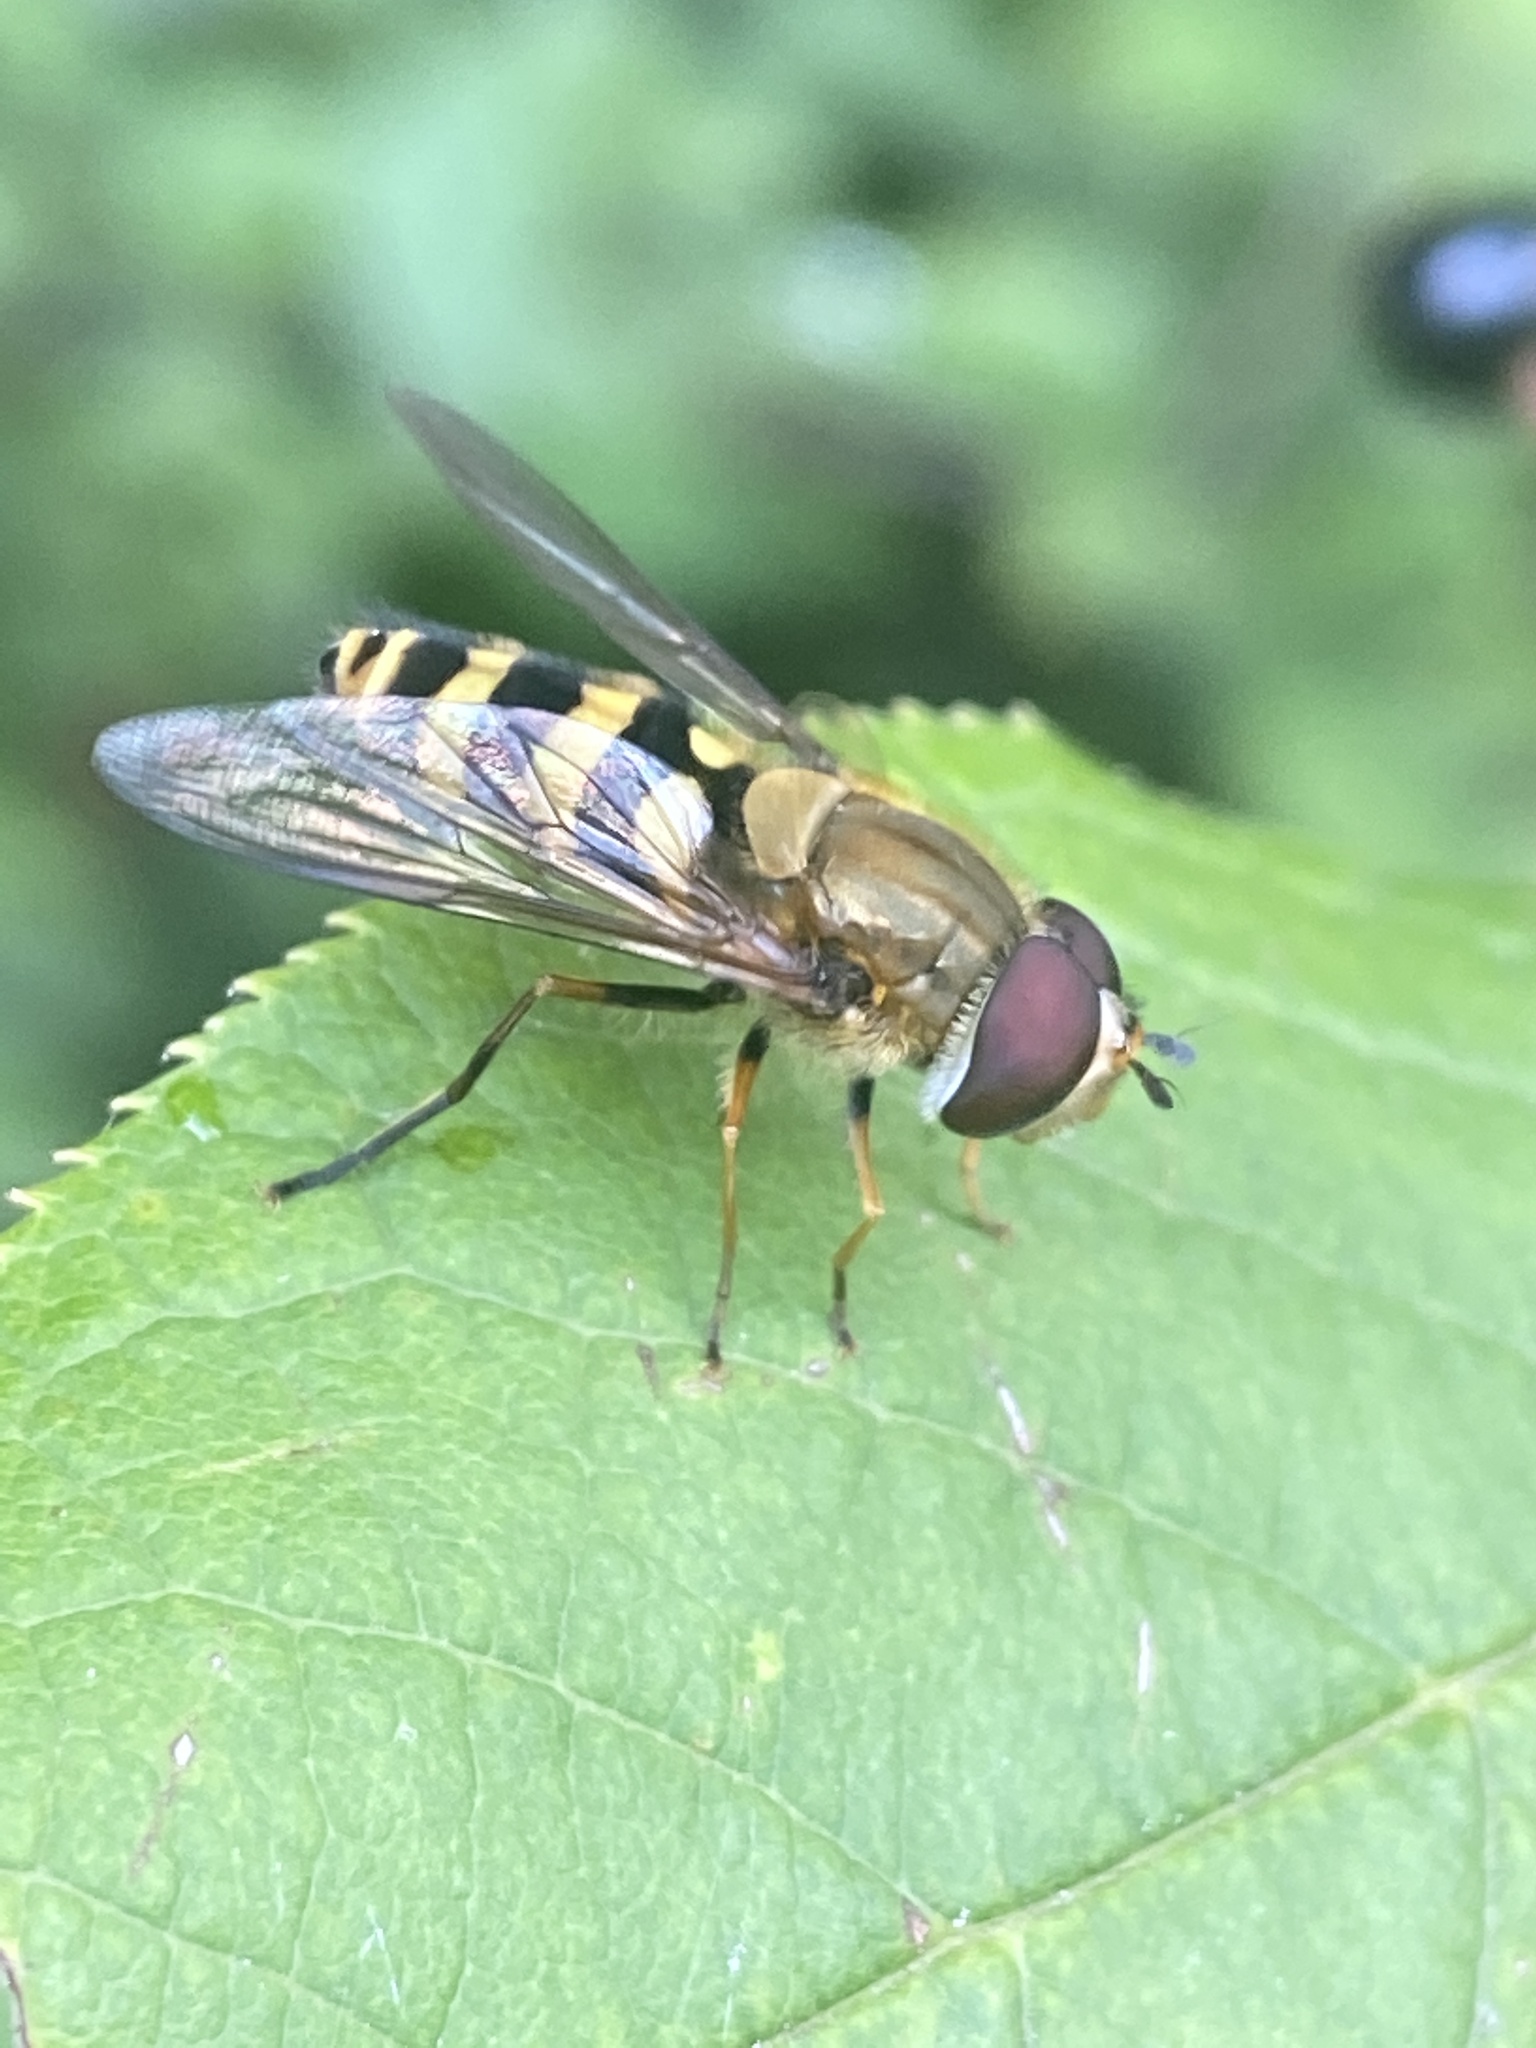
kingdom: Animalia
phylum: Arthropoda
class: Insecta
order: Diptera
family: Syrphidae
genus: Syrphus
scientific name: Syrphus
